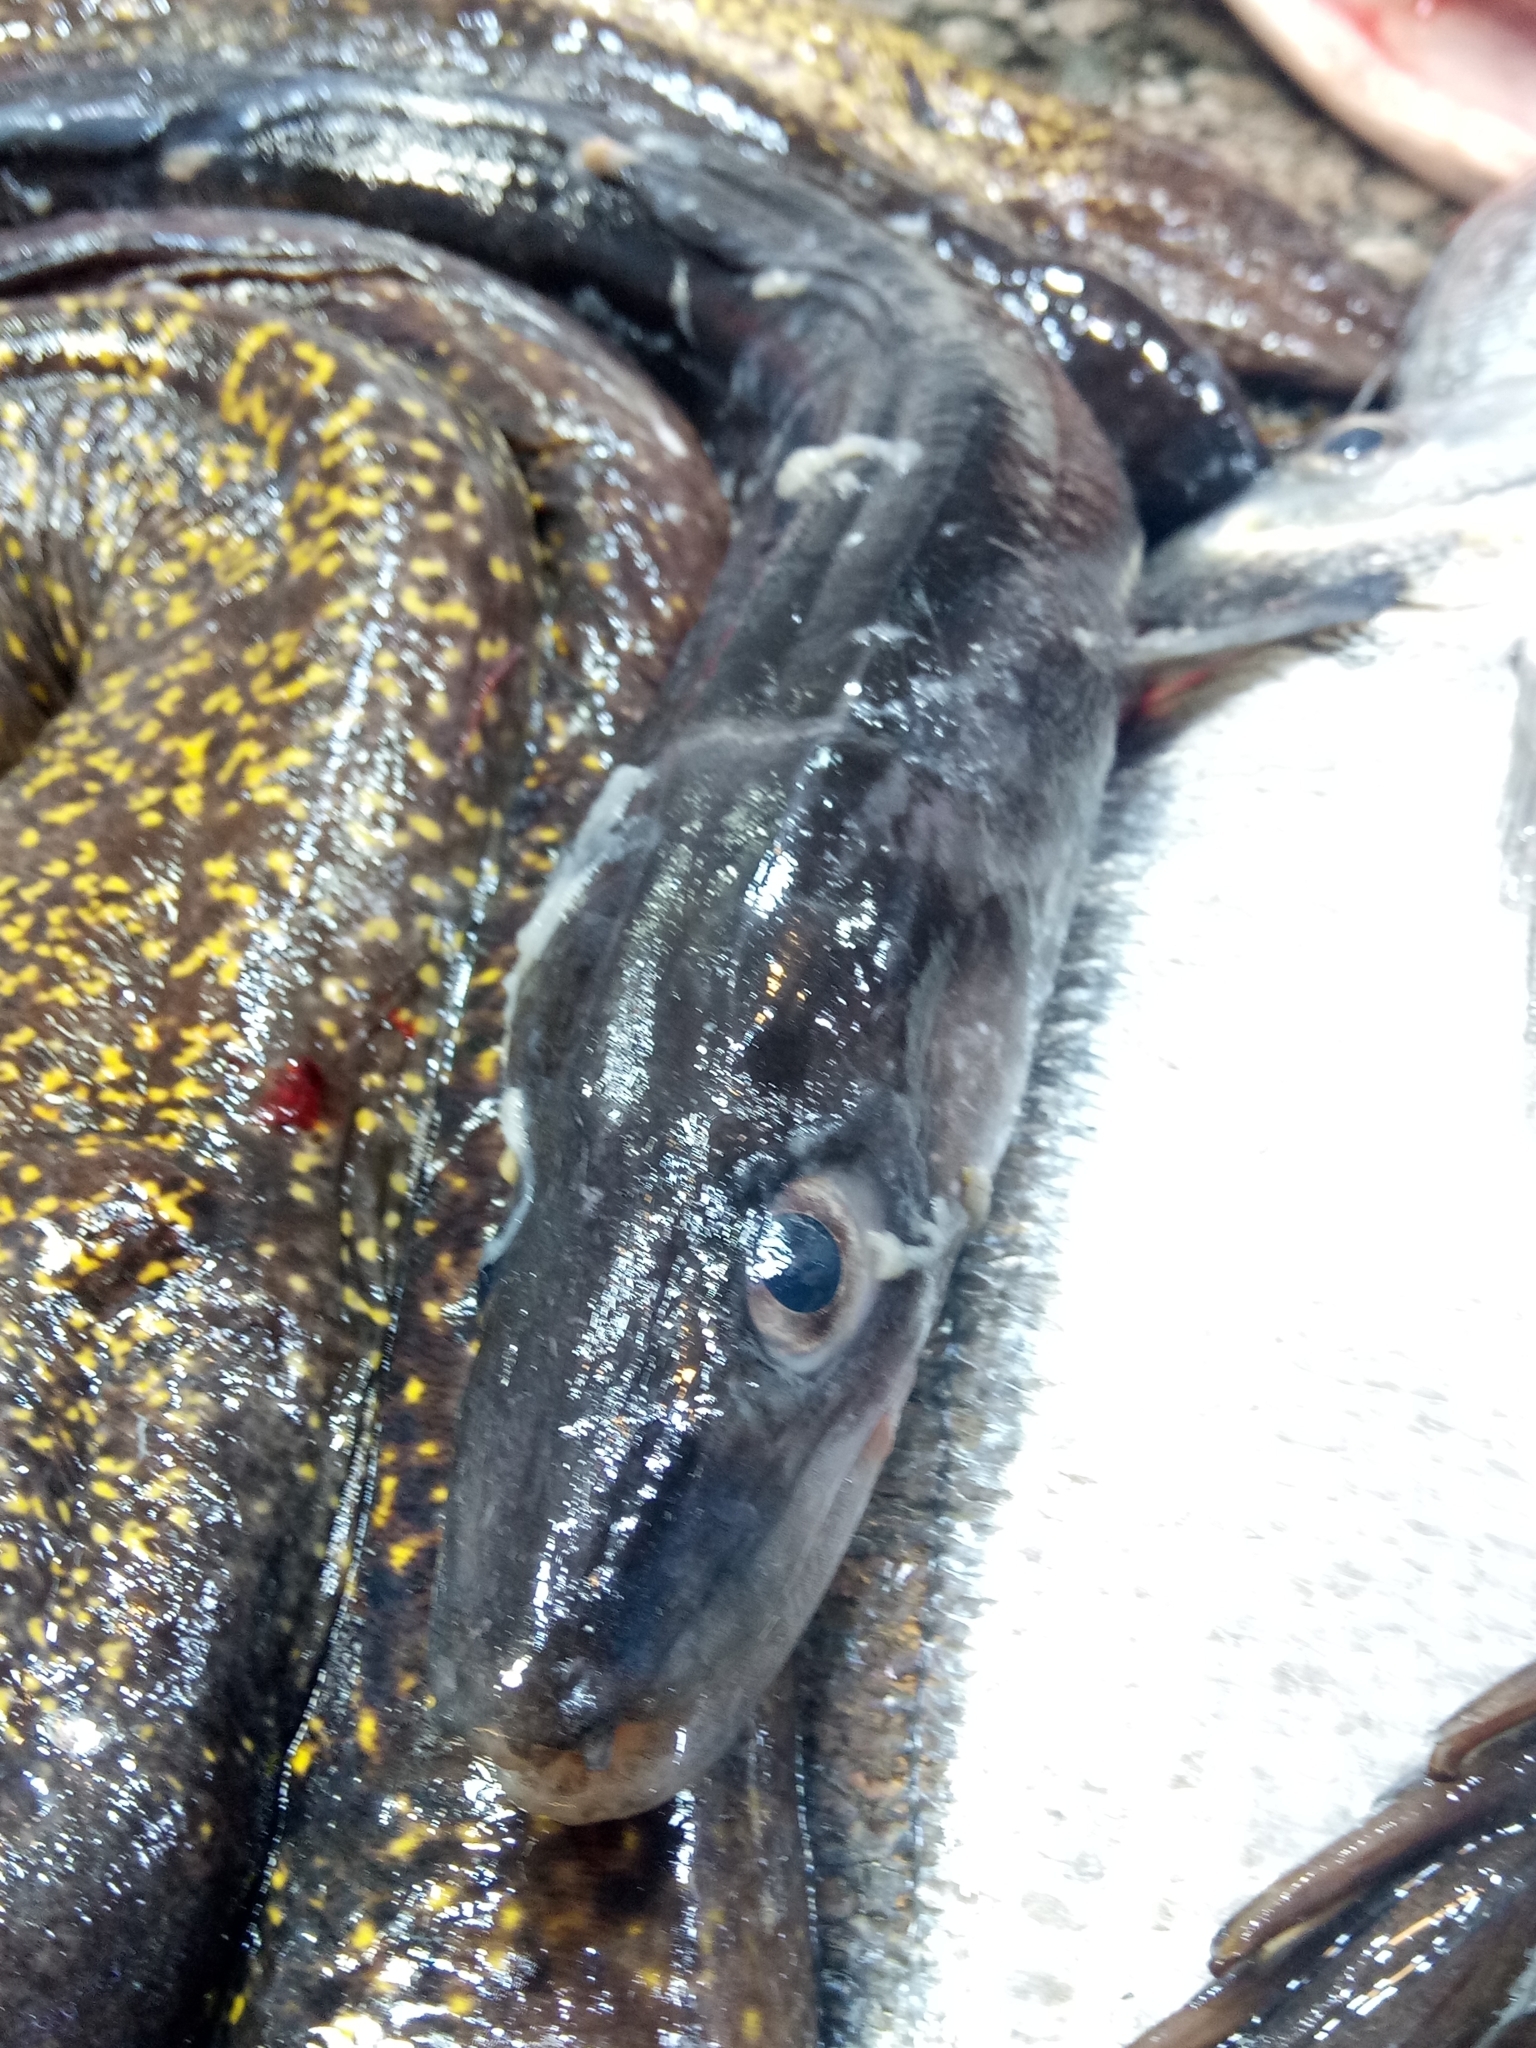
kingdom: Animalia
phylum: Chordata
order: Anguilliformes
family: Congridae
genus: Conger
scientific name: Conger conger
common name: Conger eel
